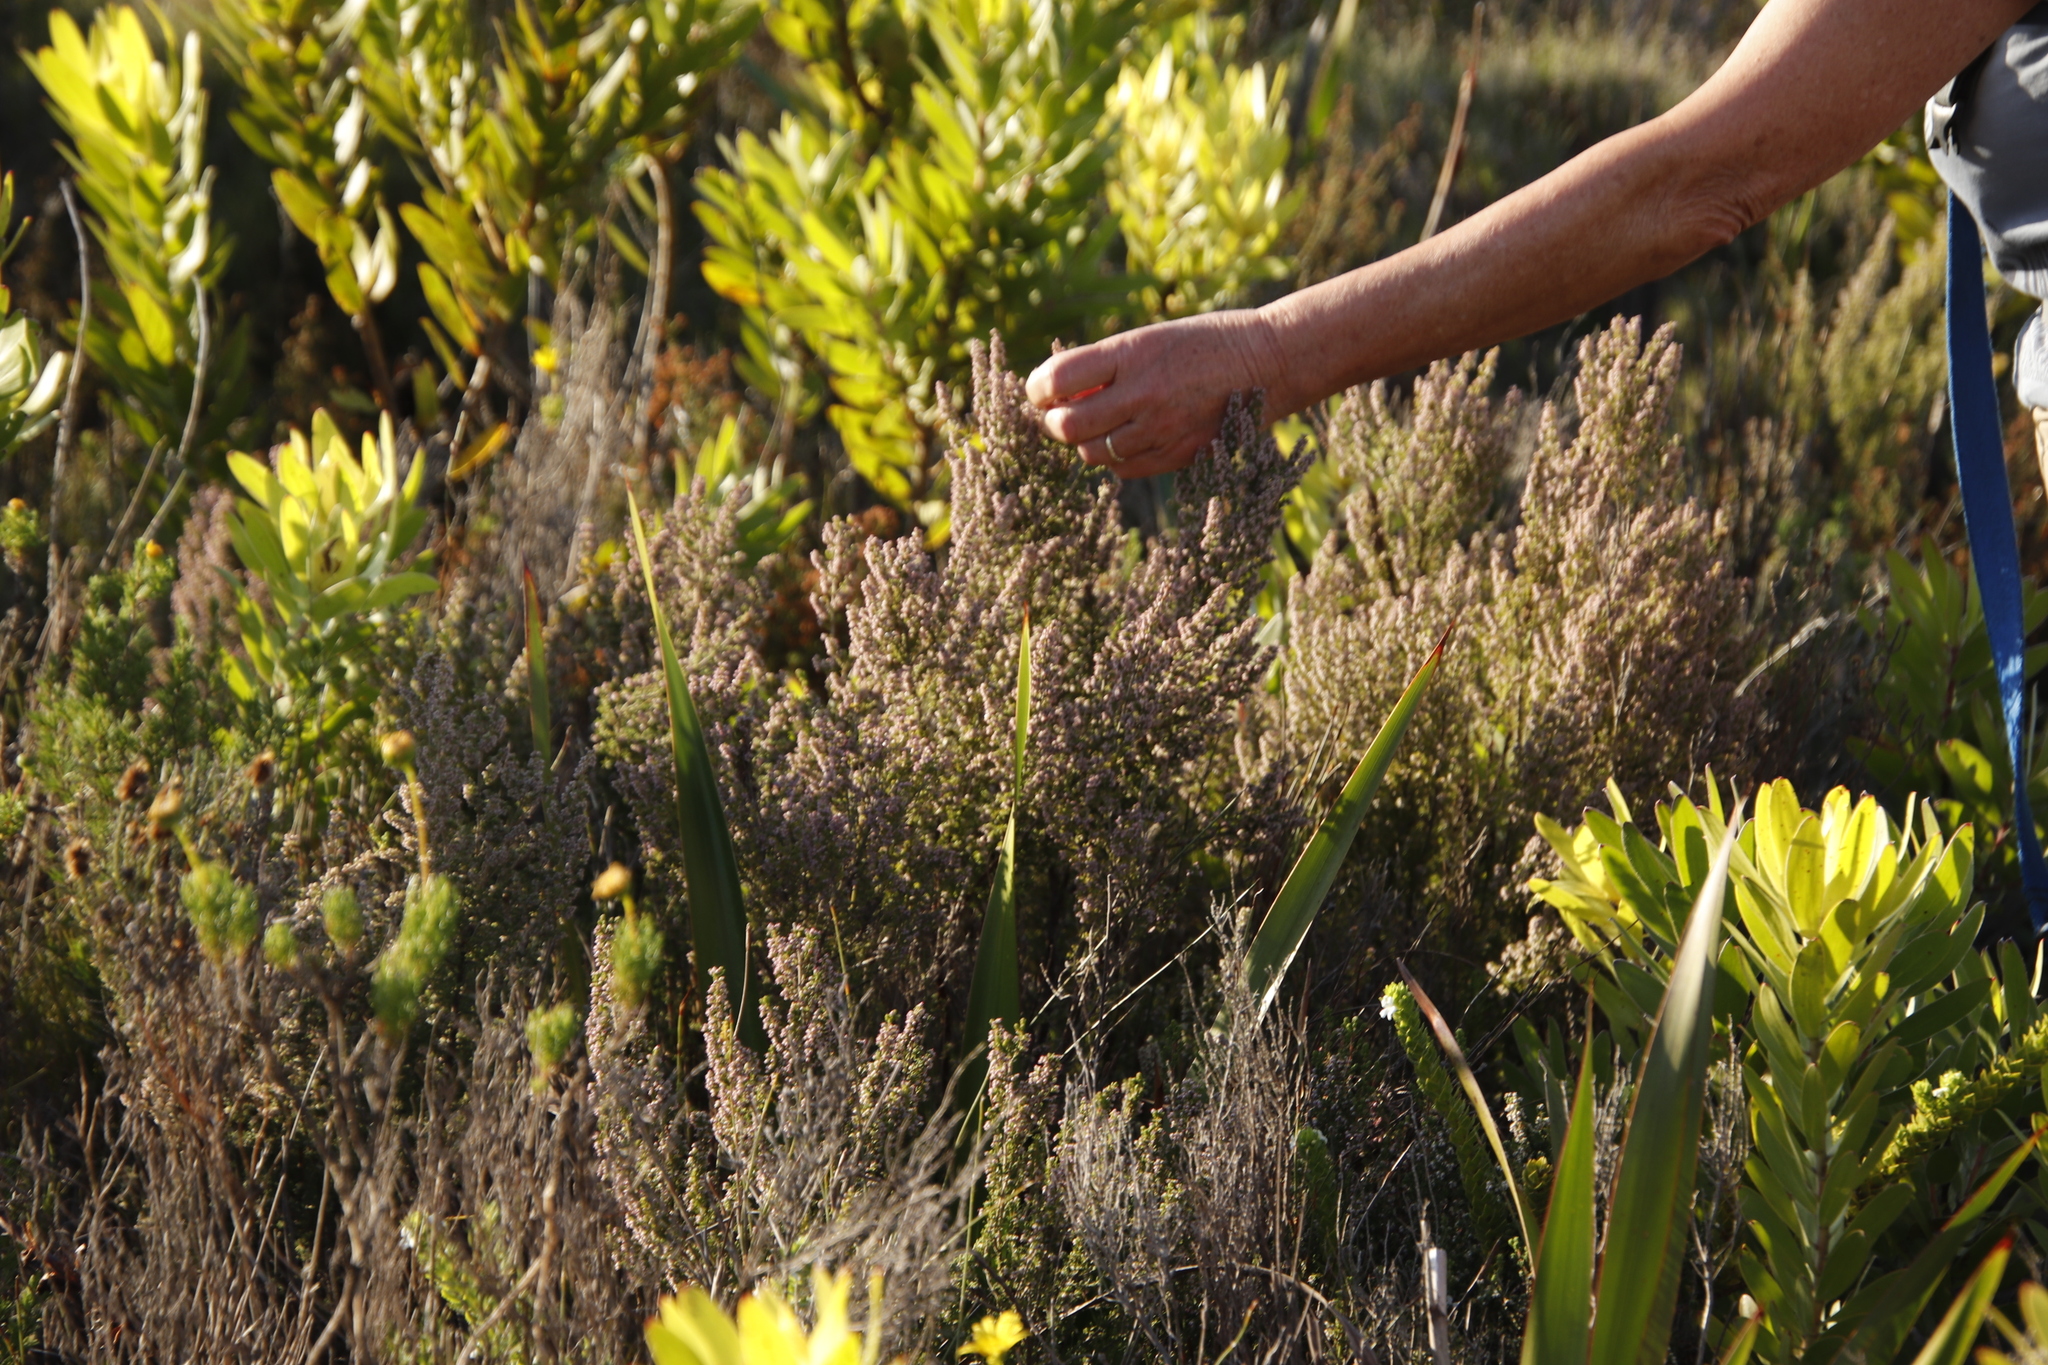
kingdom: Plantae
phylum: Tracheophyta
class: Magnoliopsida
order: Ericales
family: Ericaceae
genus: Erica
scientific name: Erica hispidula
